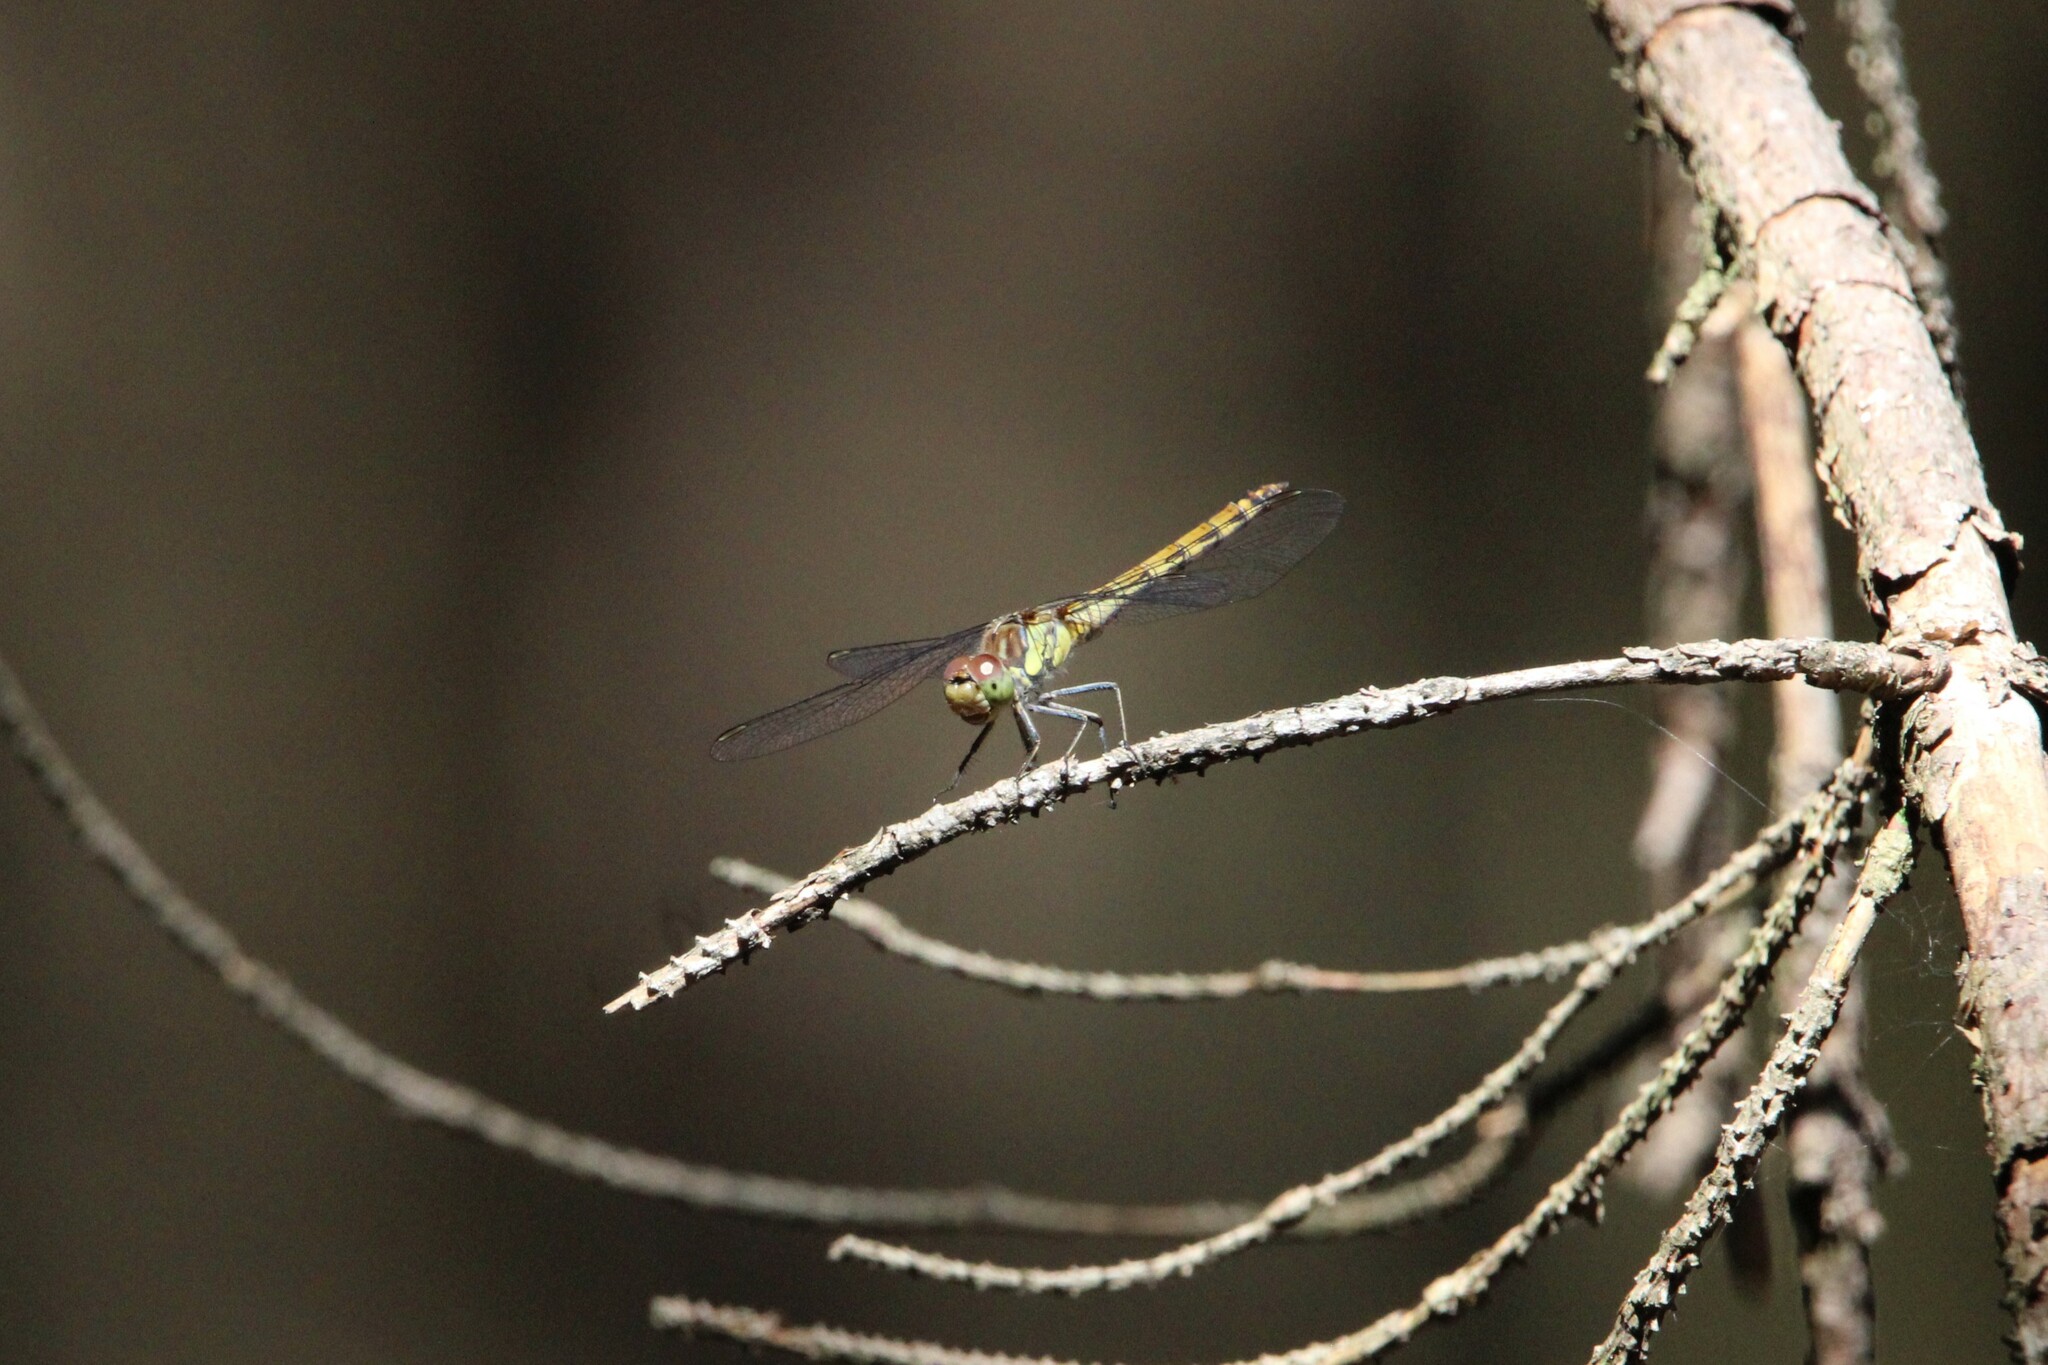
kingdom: Animalia
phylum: Arthropoda
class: Insecta
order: Odonata
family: Libellulidae
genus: Sympetrum
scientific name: Sympetrum striolatum
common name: Common darter
